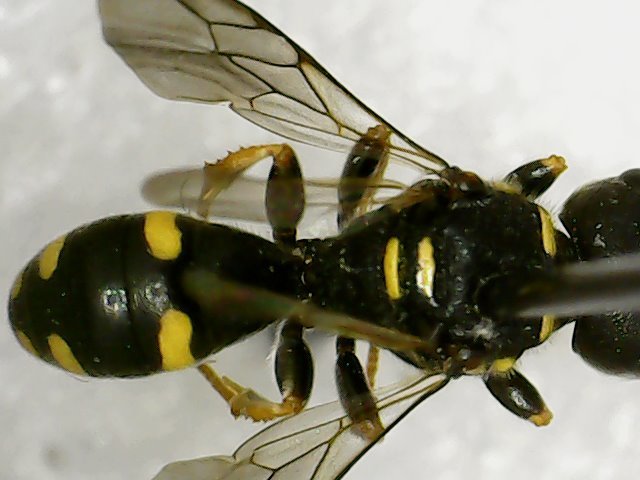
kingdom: Animalia
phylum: Arthropoda
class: Insecta
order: Hymenoptera
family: Crabronidae
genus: Ectemnius
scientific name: Ectemnius stirpicola
